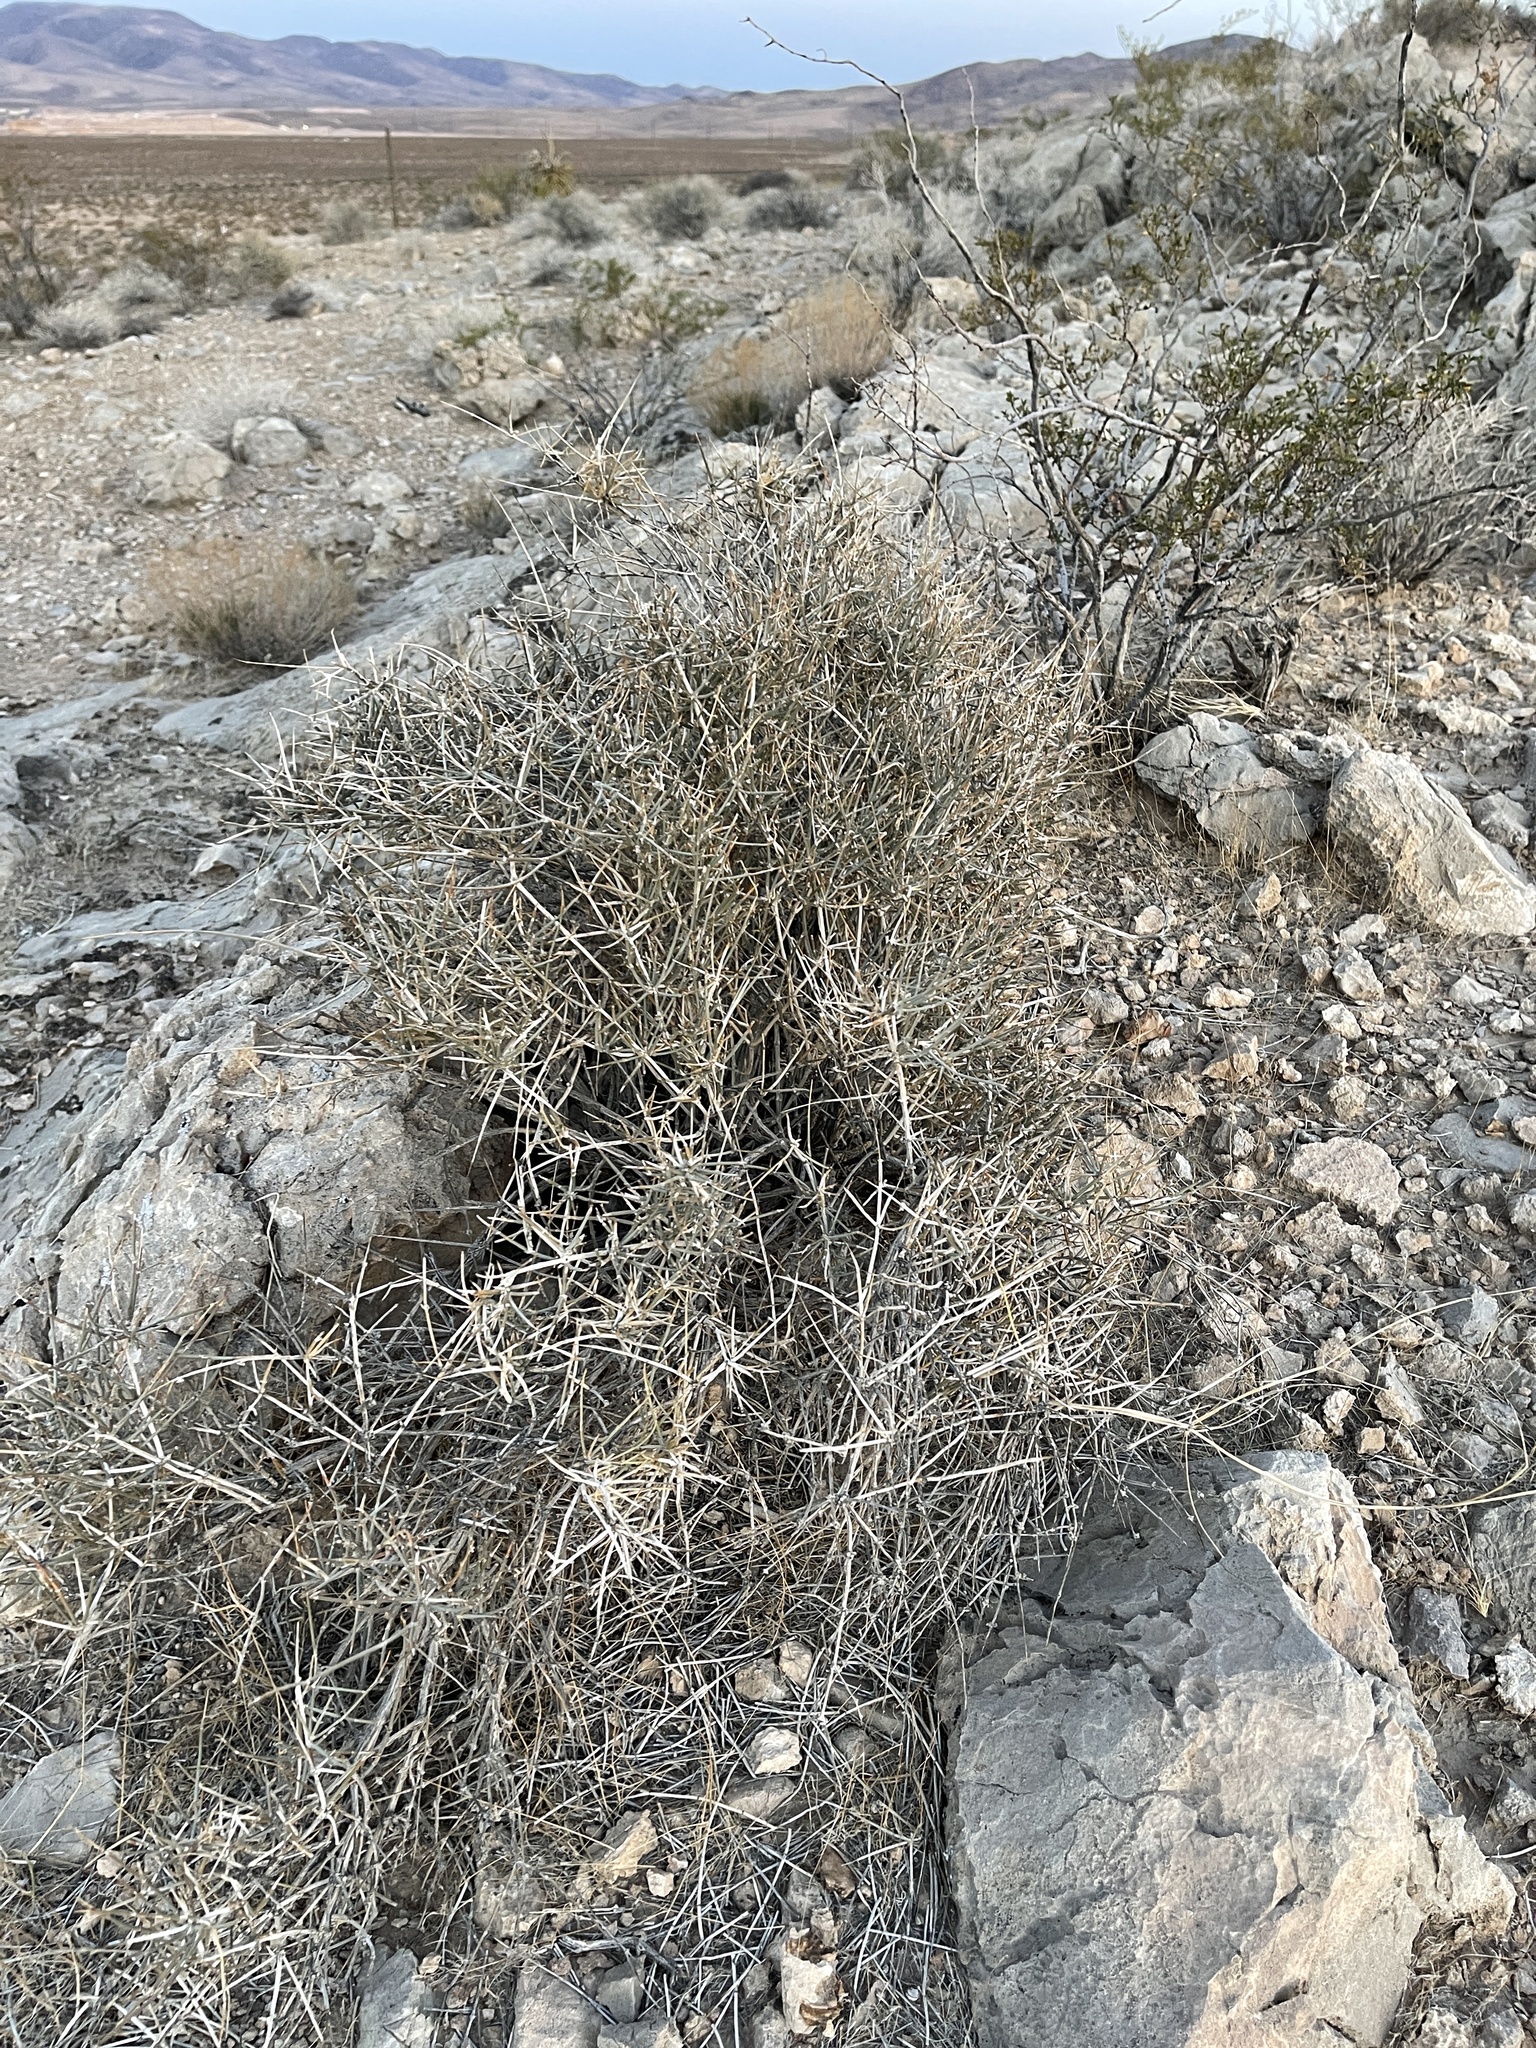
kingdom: Plantae
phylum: Tracheophyta
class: Gnetopsida
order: Ephedrales
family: Ephedraceae
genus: Ephedra
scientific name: Ephedra nevadensis
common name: Gray ephedra
